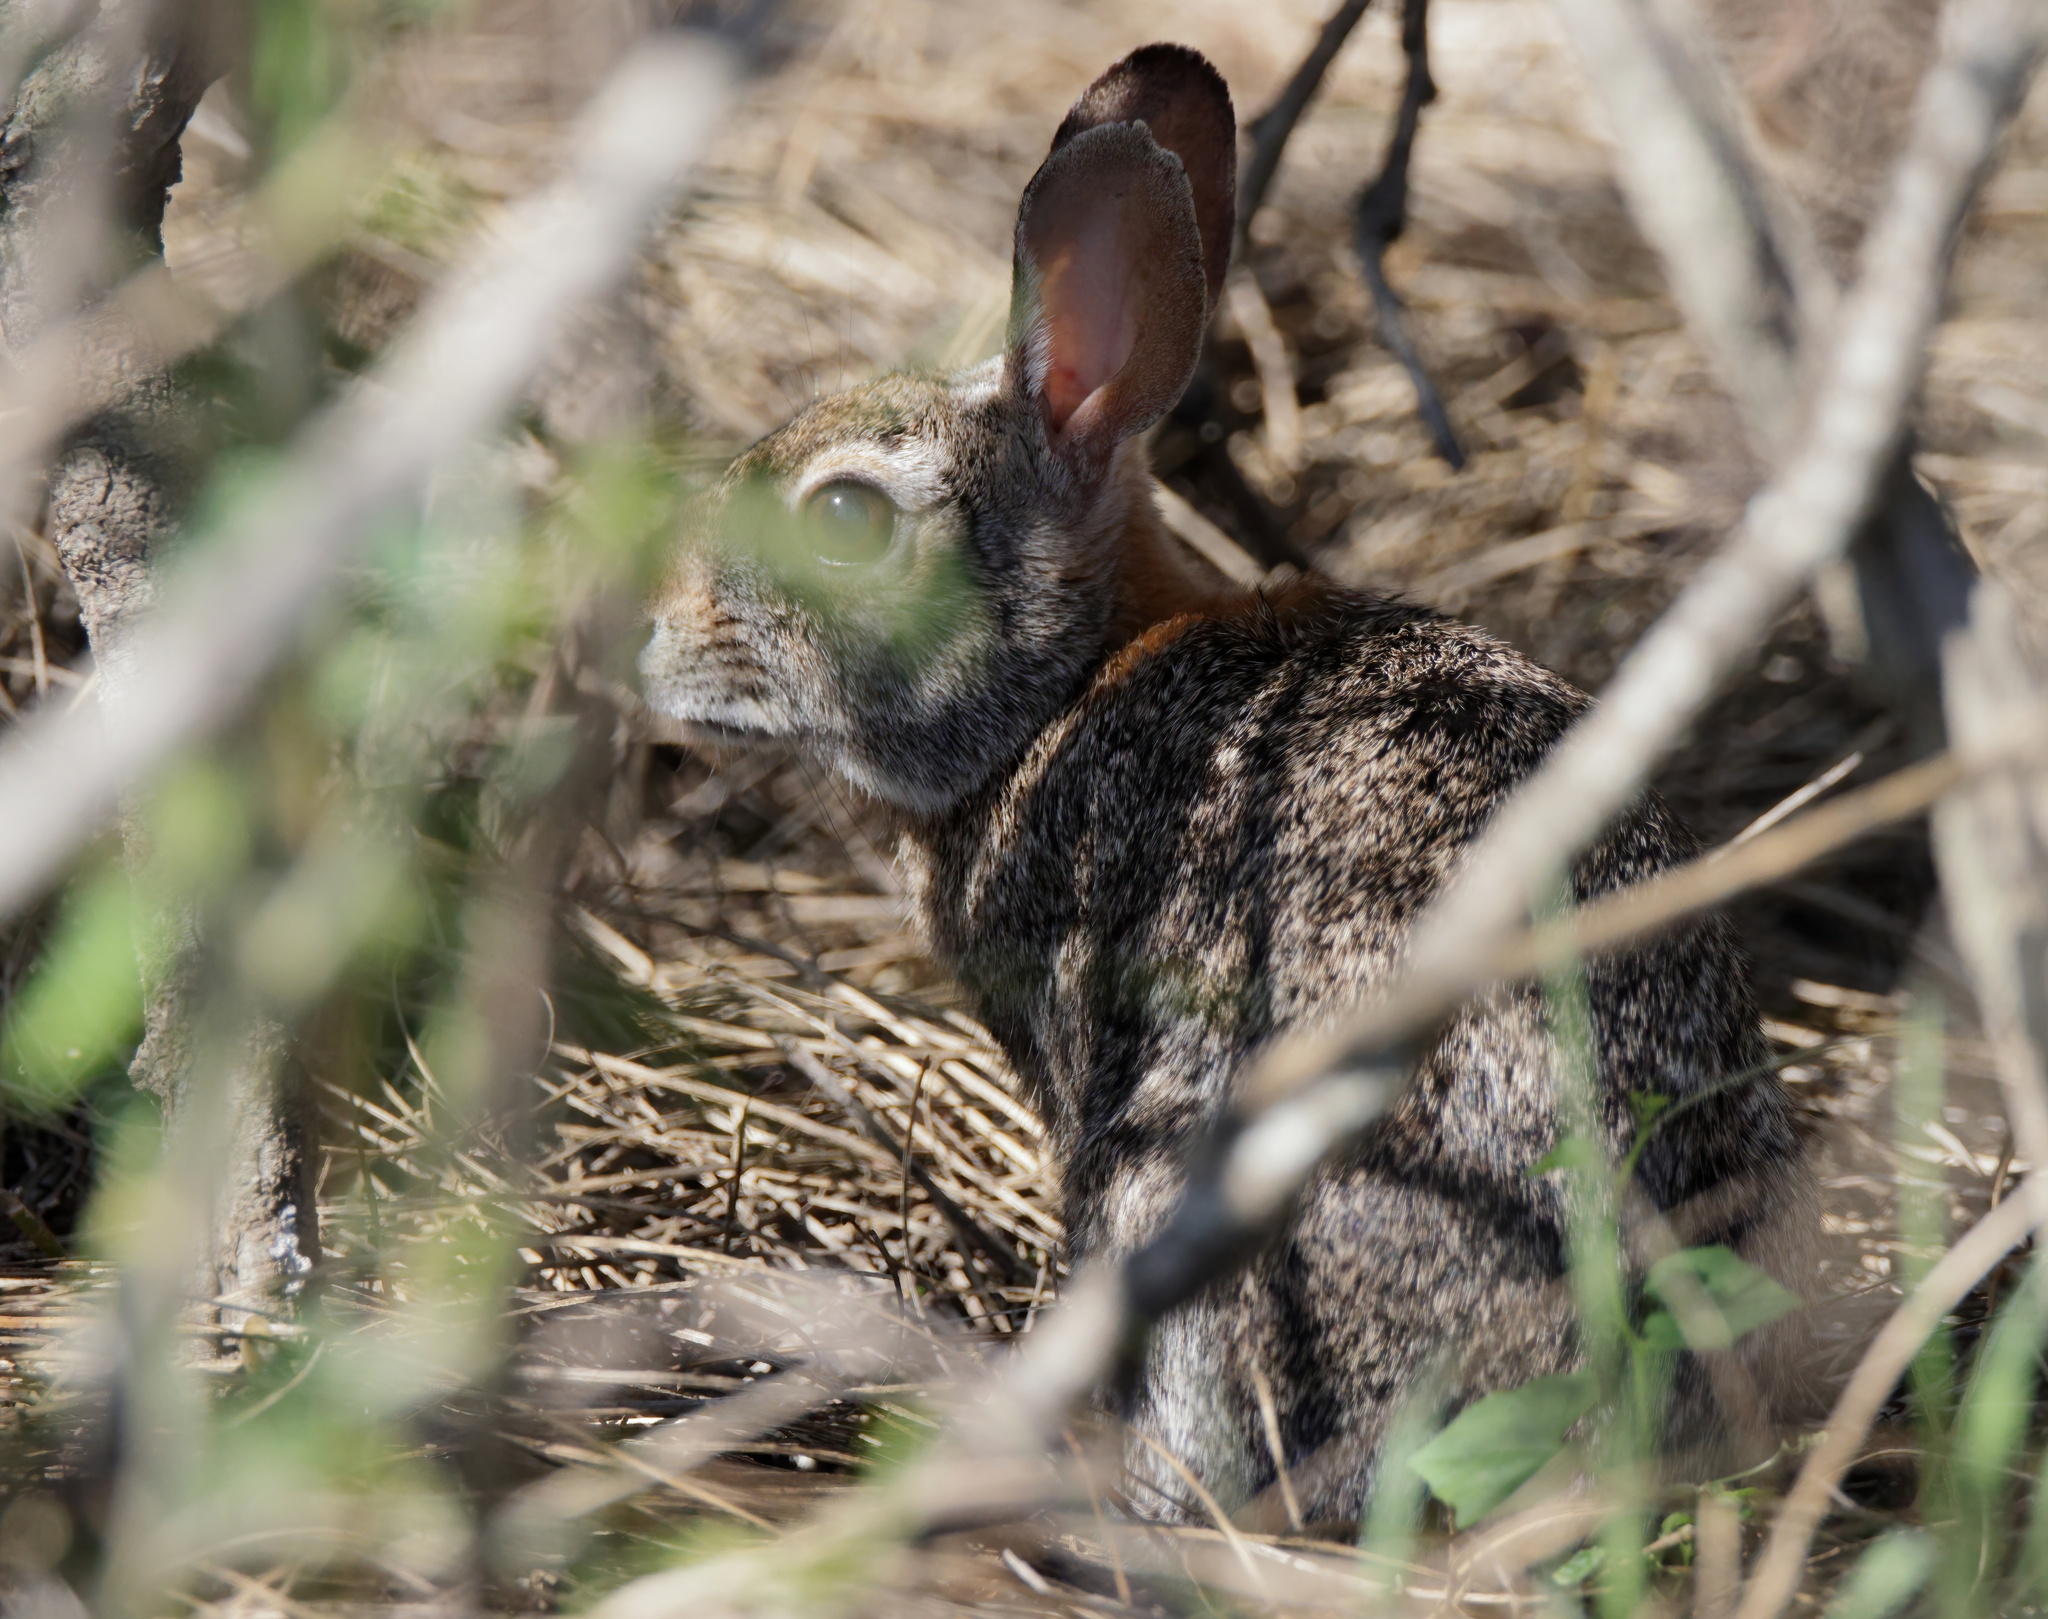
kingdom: Animalia
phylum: Chordata
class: Mammalia
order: Lagomorpha
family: Leporidae
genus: Sylvilagus
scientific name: Sylvilagus floridanus
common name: Eastern cottontail
